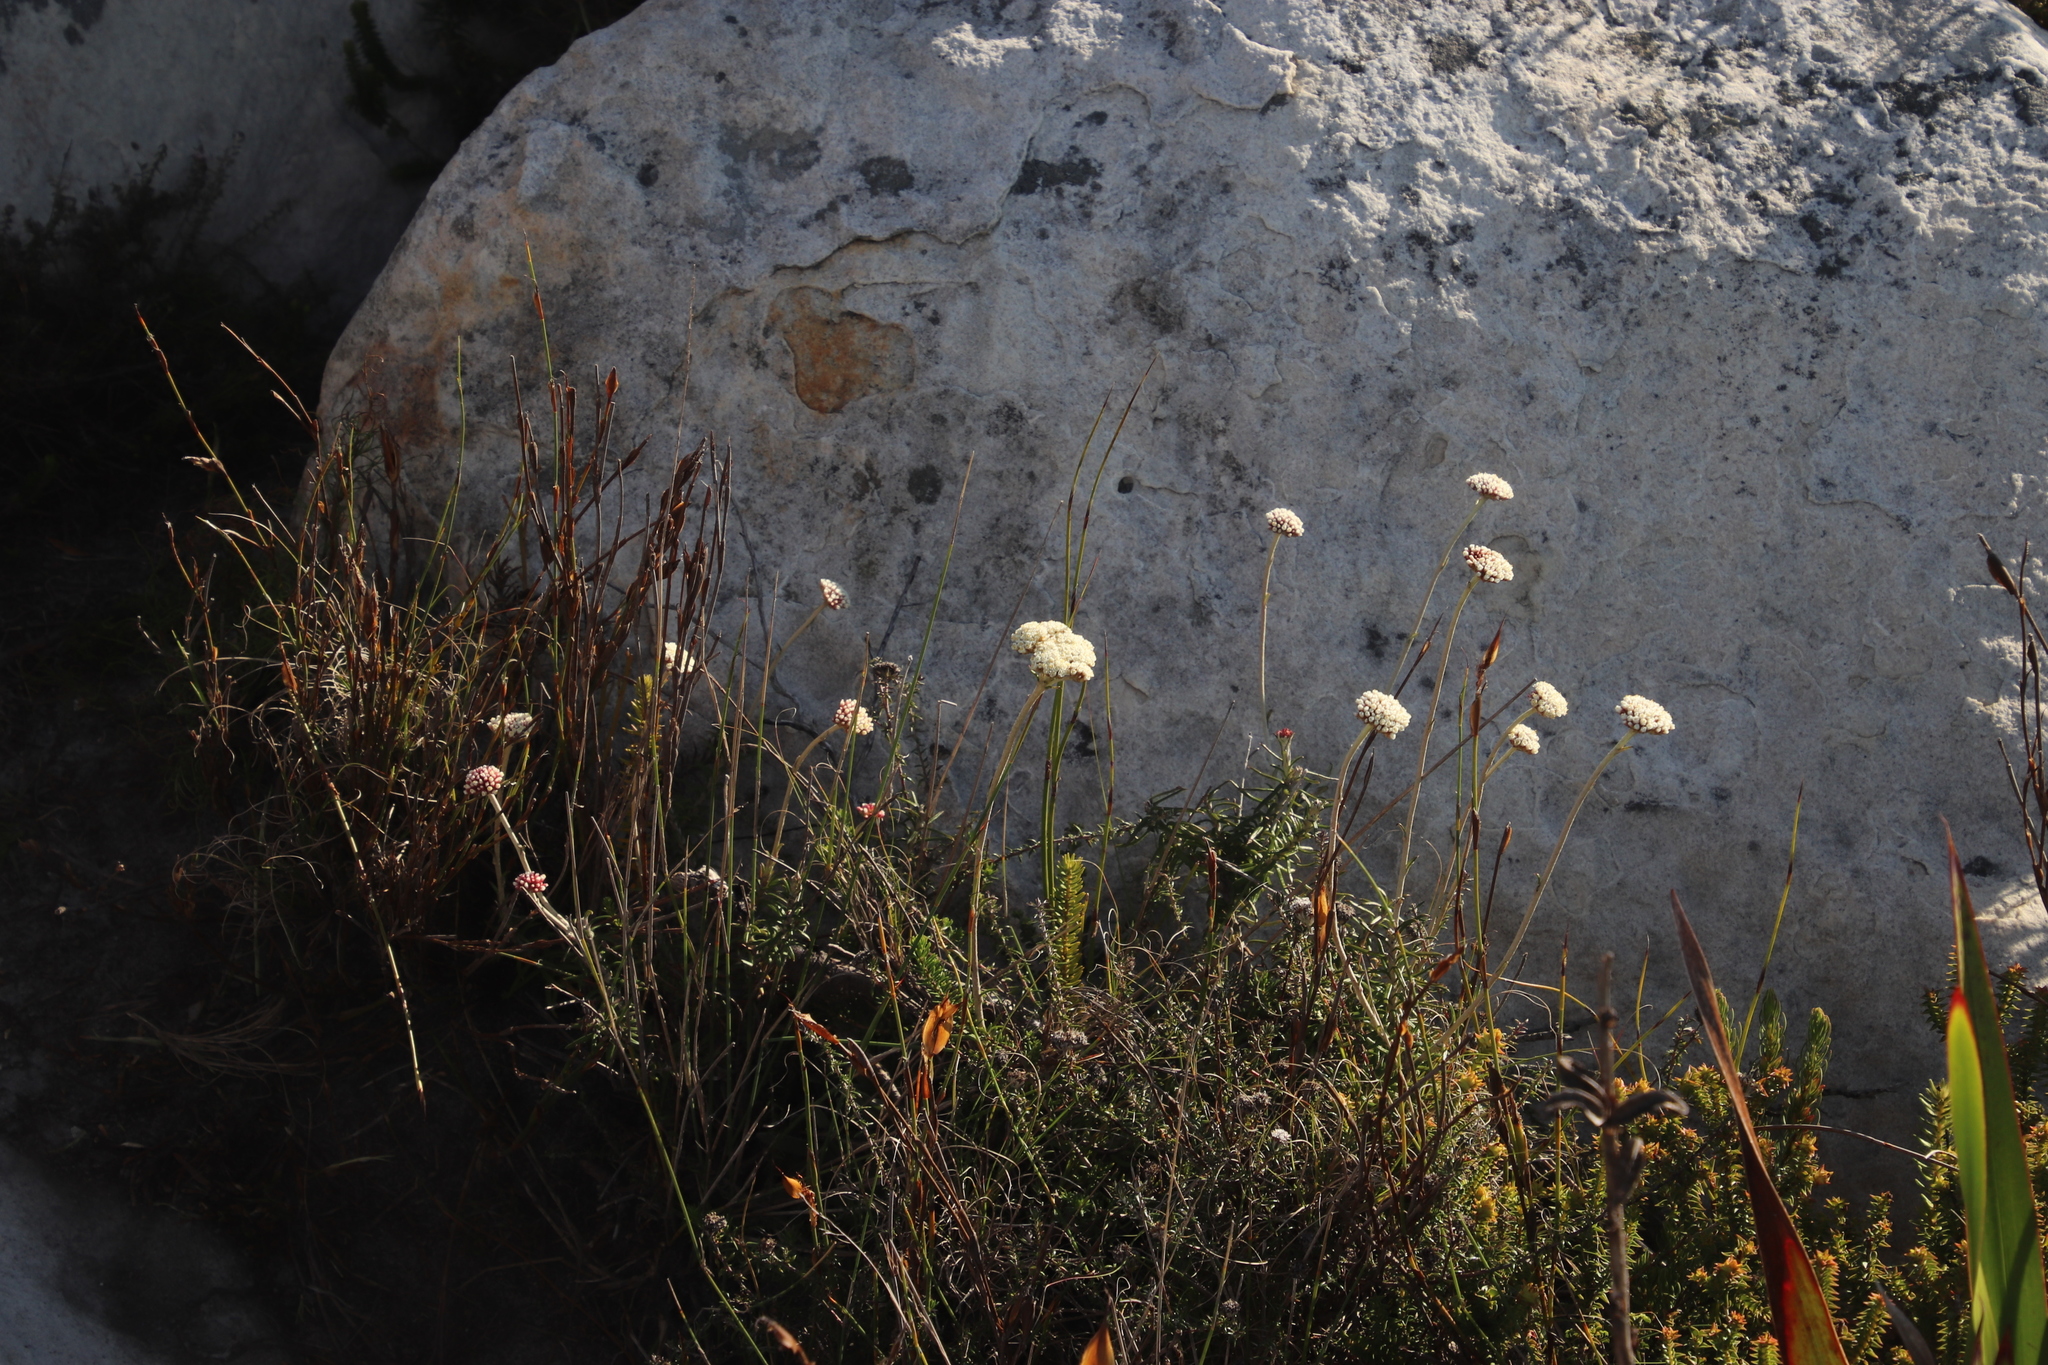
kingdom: Plantae
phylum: Tracheophyta
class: Magnoliopsida
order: Asterales
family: Asteraceae
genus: Anaxeton
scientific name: Anaxeton arborescens
